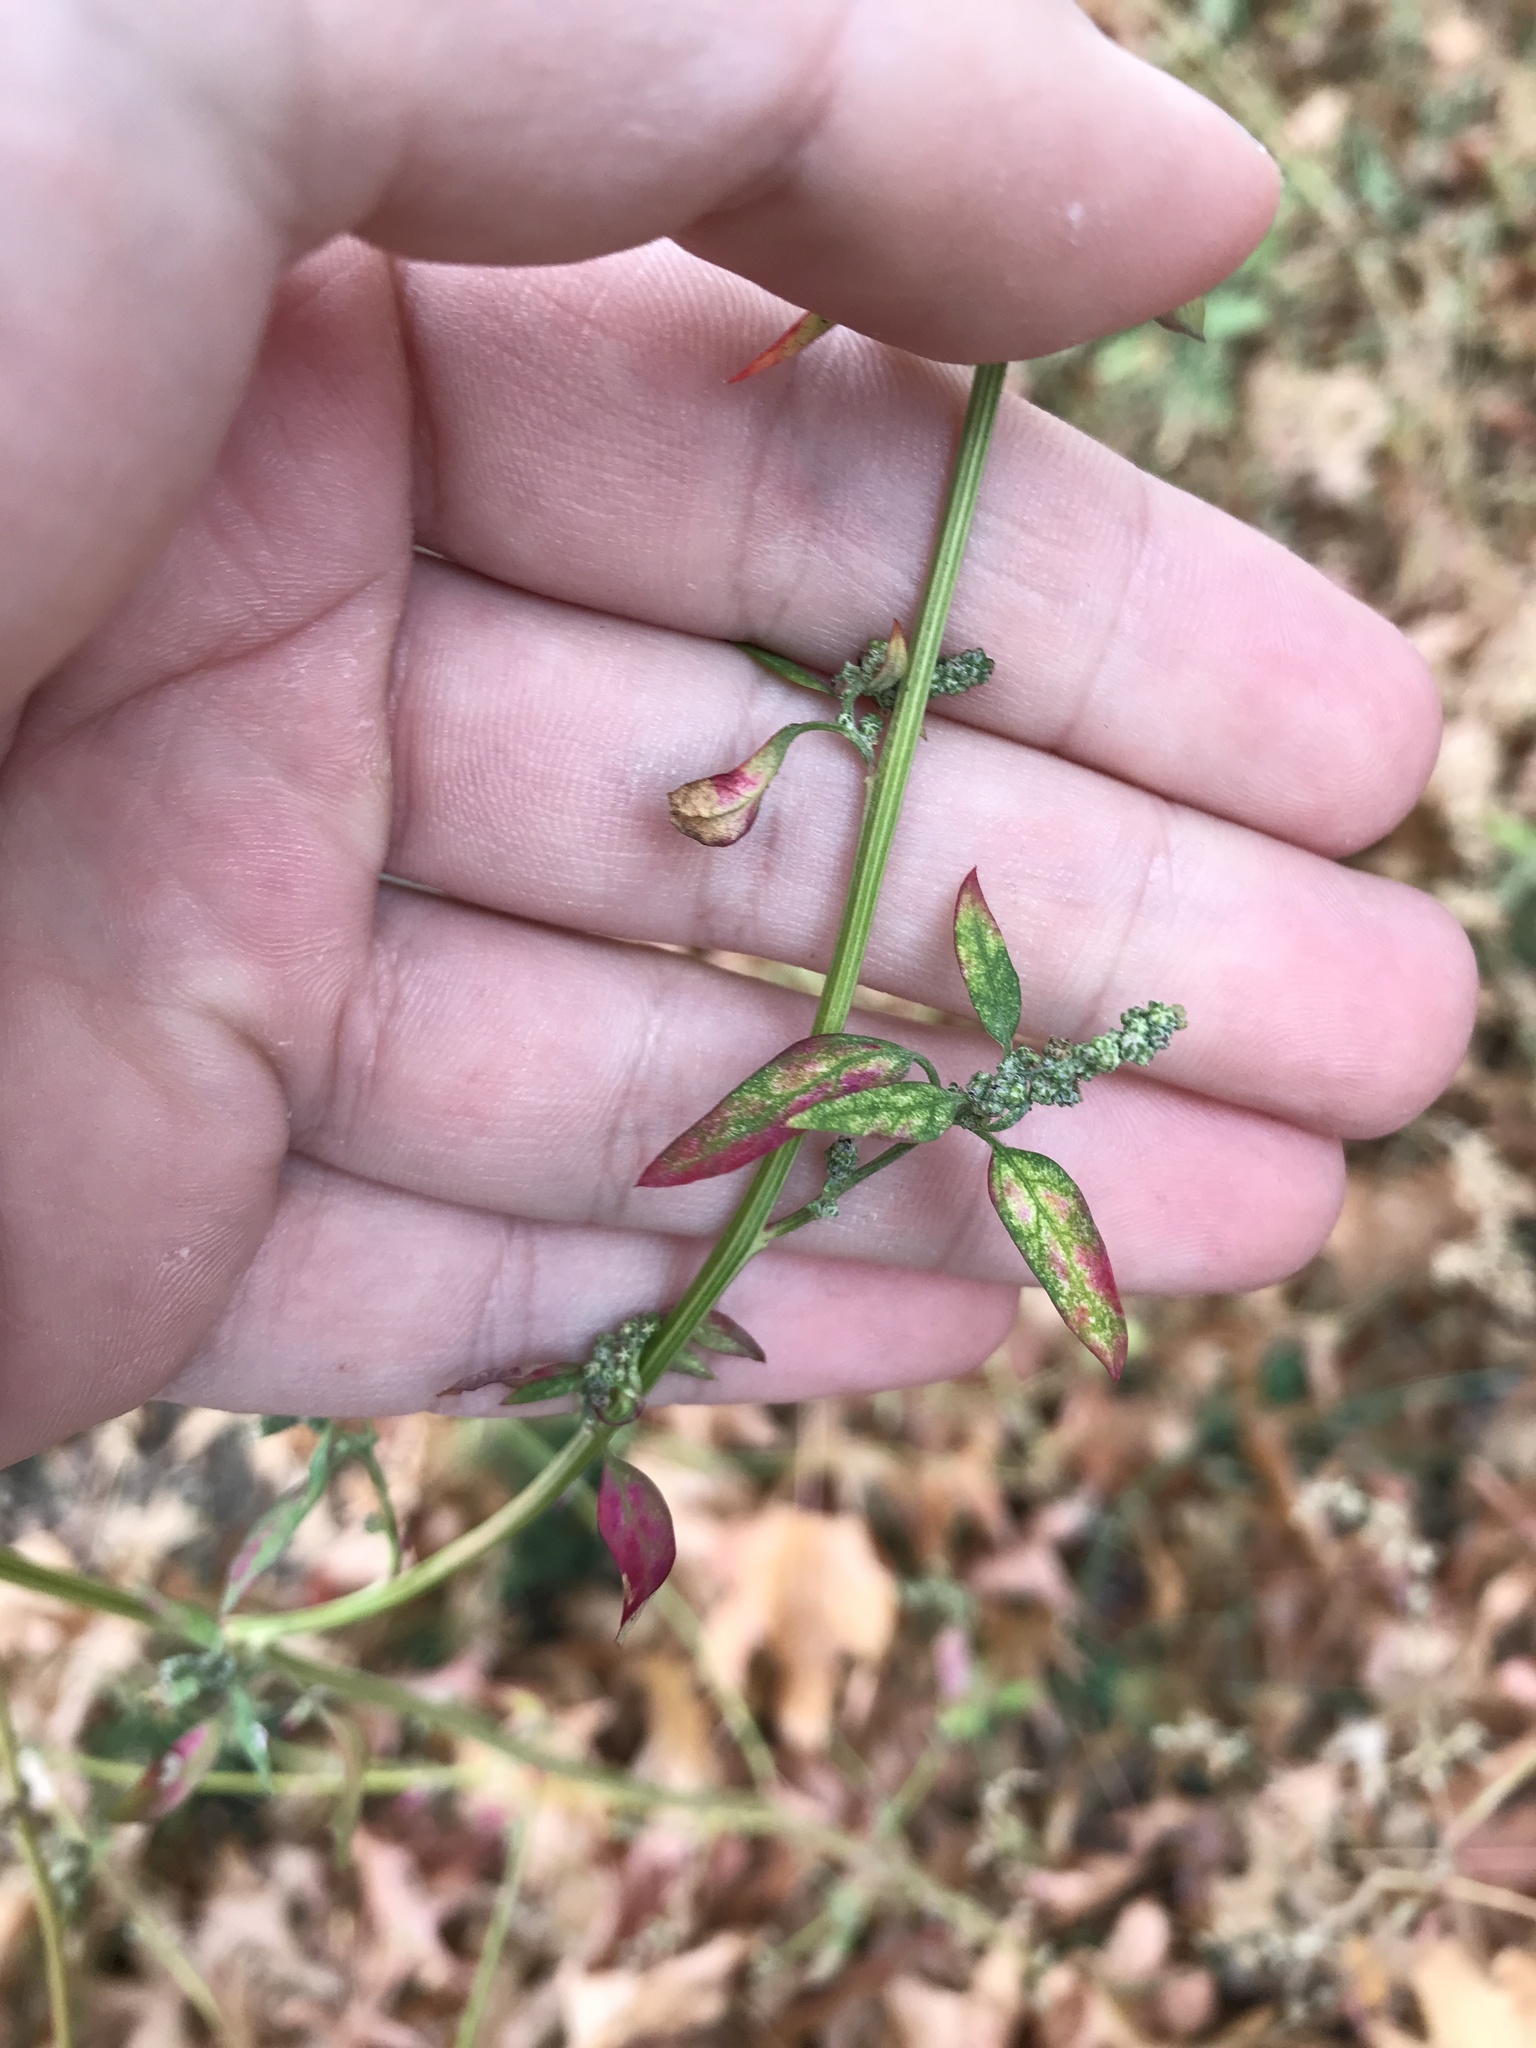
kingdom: Plantae
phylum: Tracheophyta
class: Magnoliopsida
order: Caryophyllales
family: Amaranthaceae
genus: Chenopodium
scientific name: Chenopodium album
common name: Fat-hen
